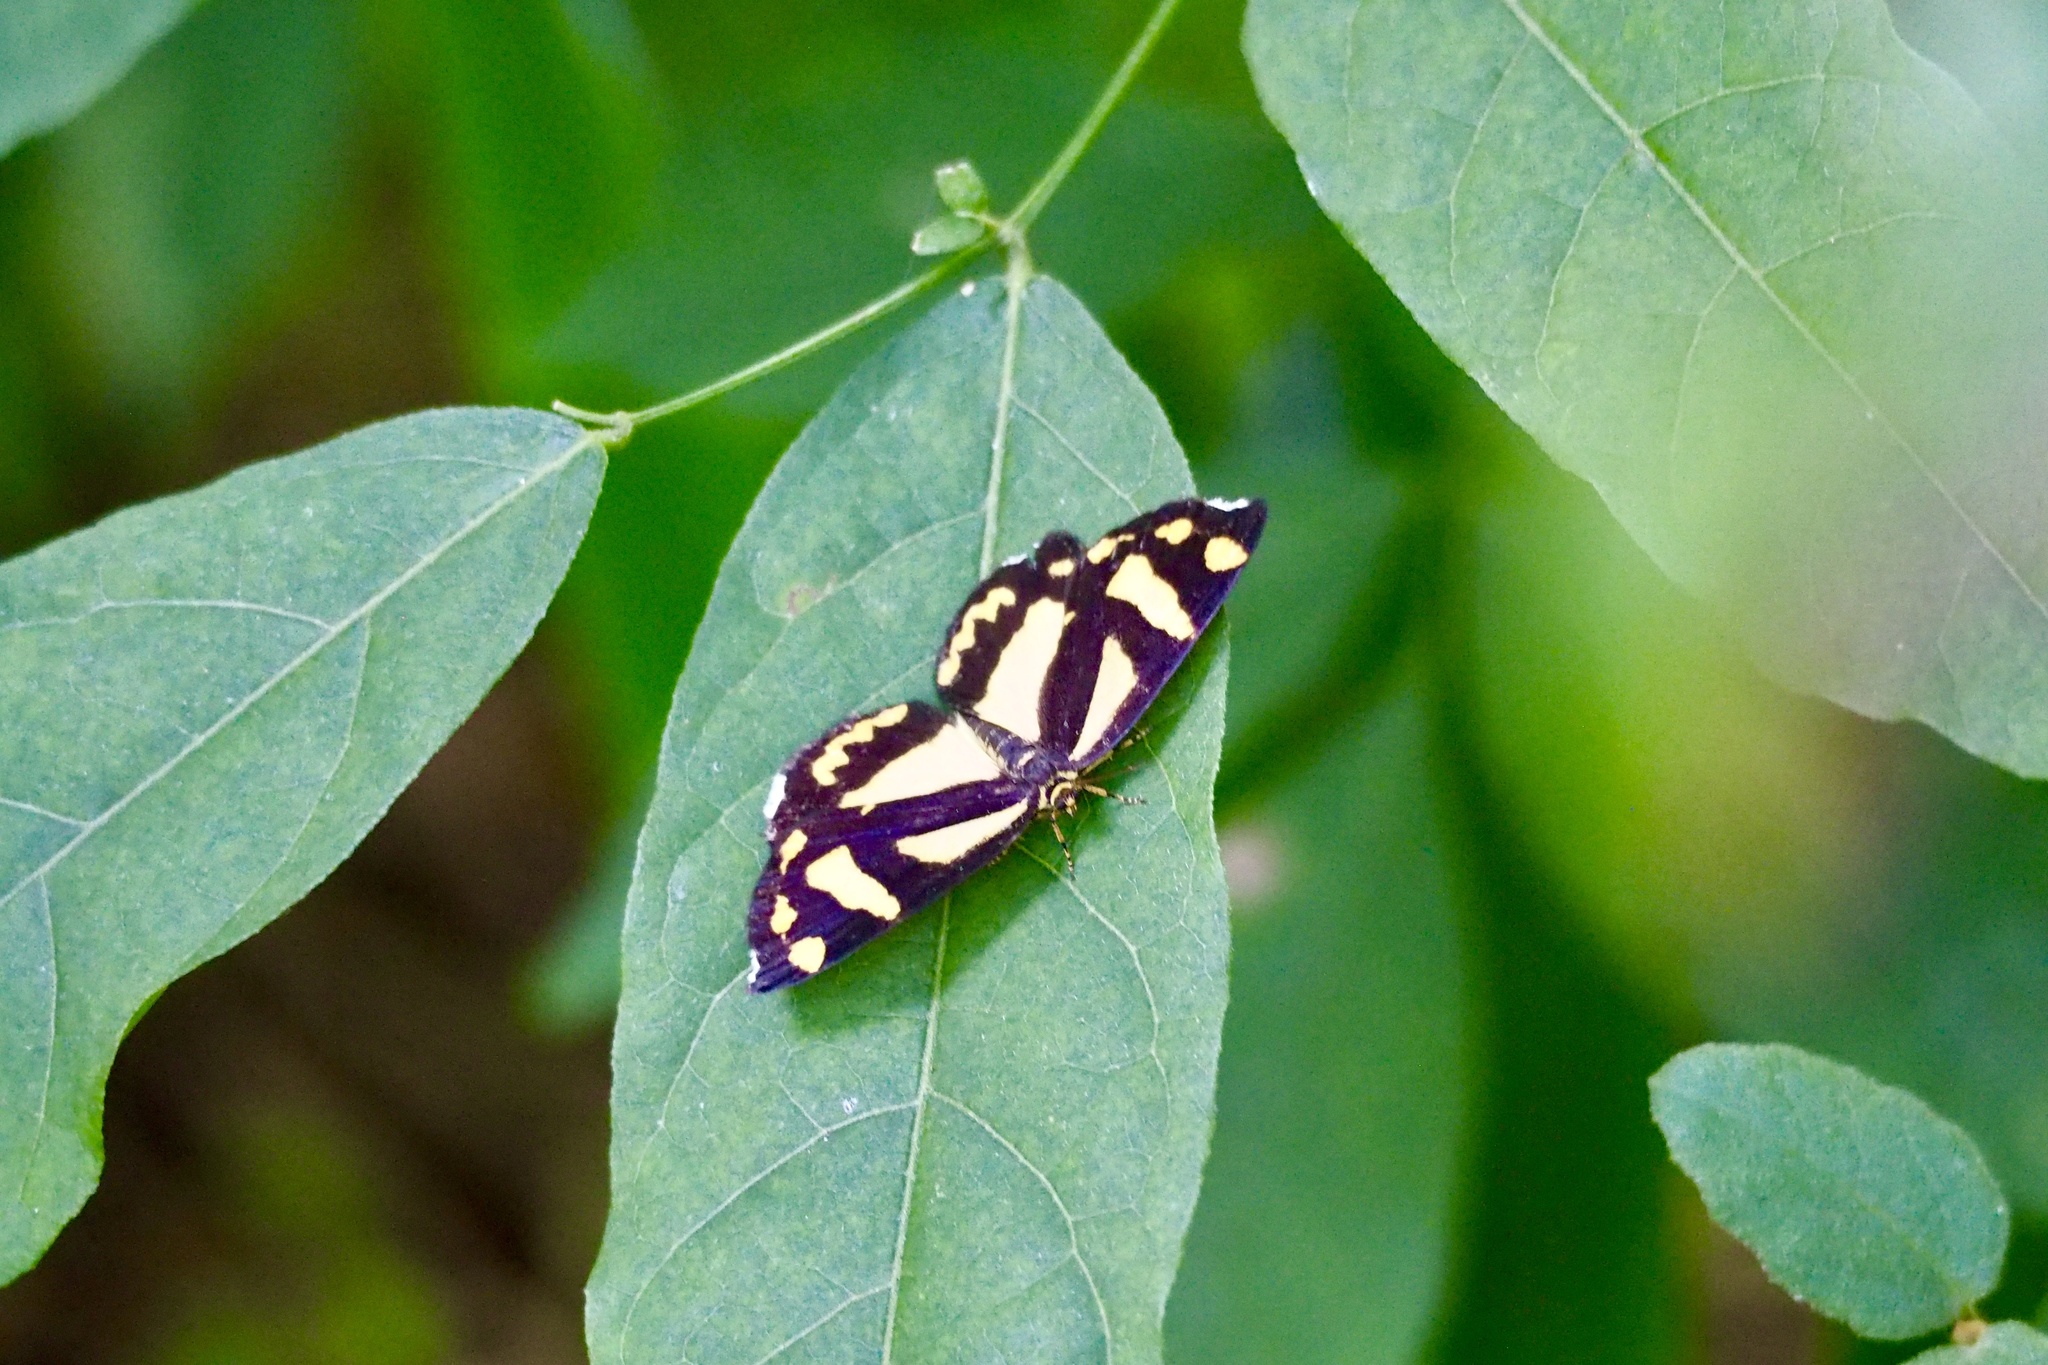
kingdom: Animalia
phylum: Arthropoda
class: Insecta
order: Lepidoptera
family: Epicopeiidae
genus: Psychostrophia
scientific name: Psychostrophia melanargia
